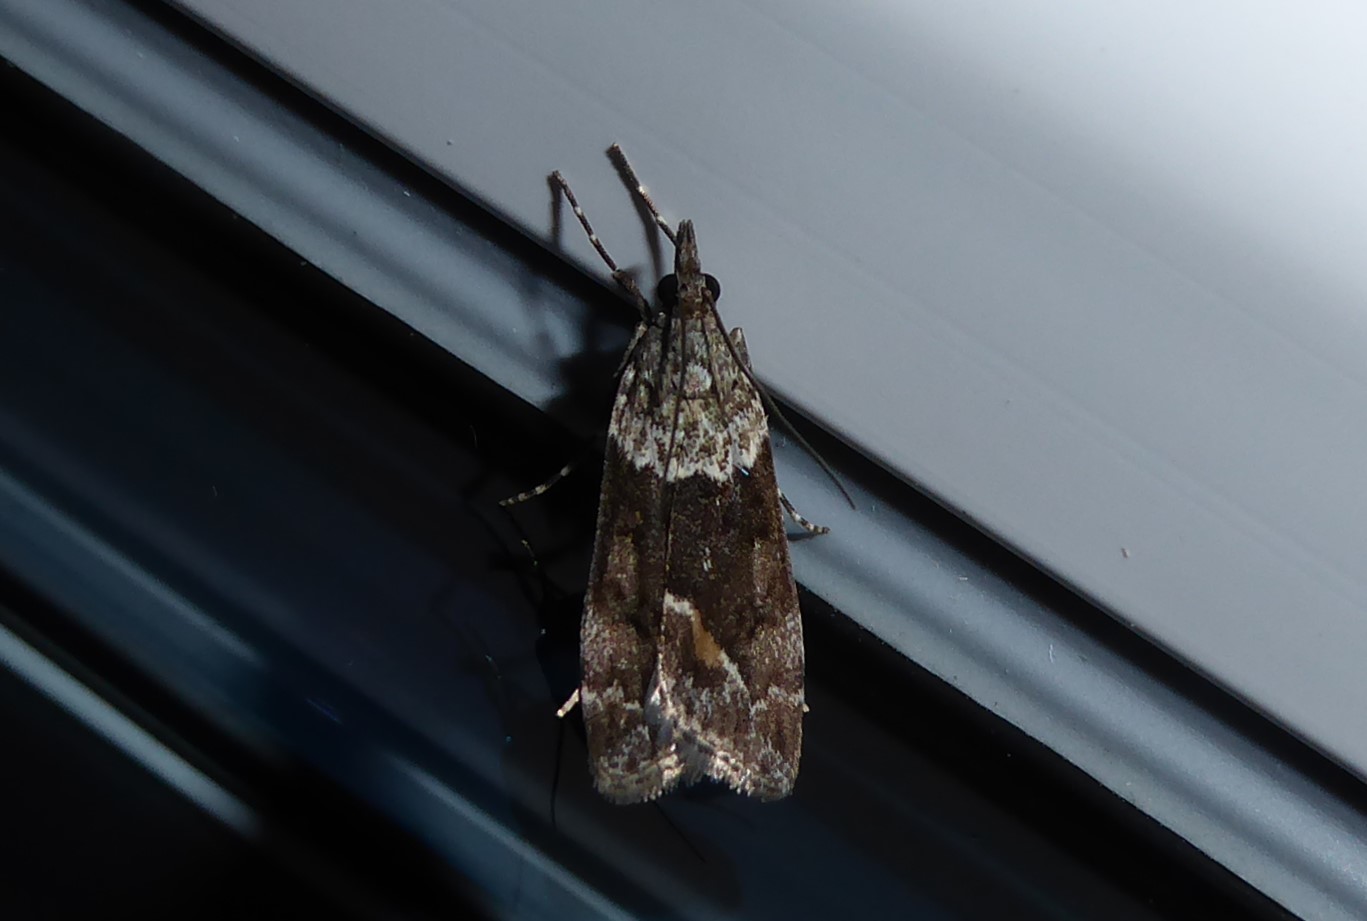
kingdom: Animalia
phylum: Arthropoda
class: Insecta
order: Lepidoptera
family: Crambidae
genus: Eudonia
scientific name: Eudonia submarginalis
